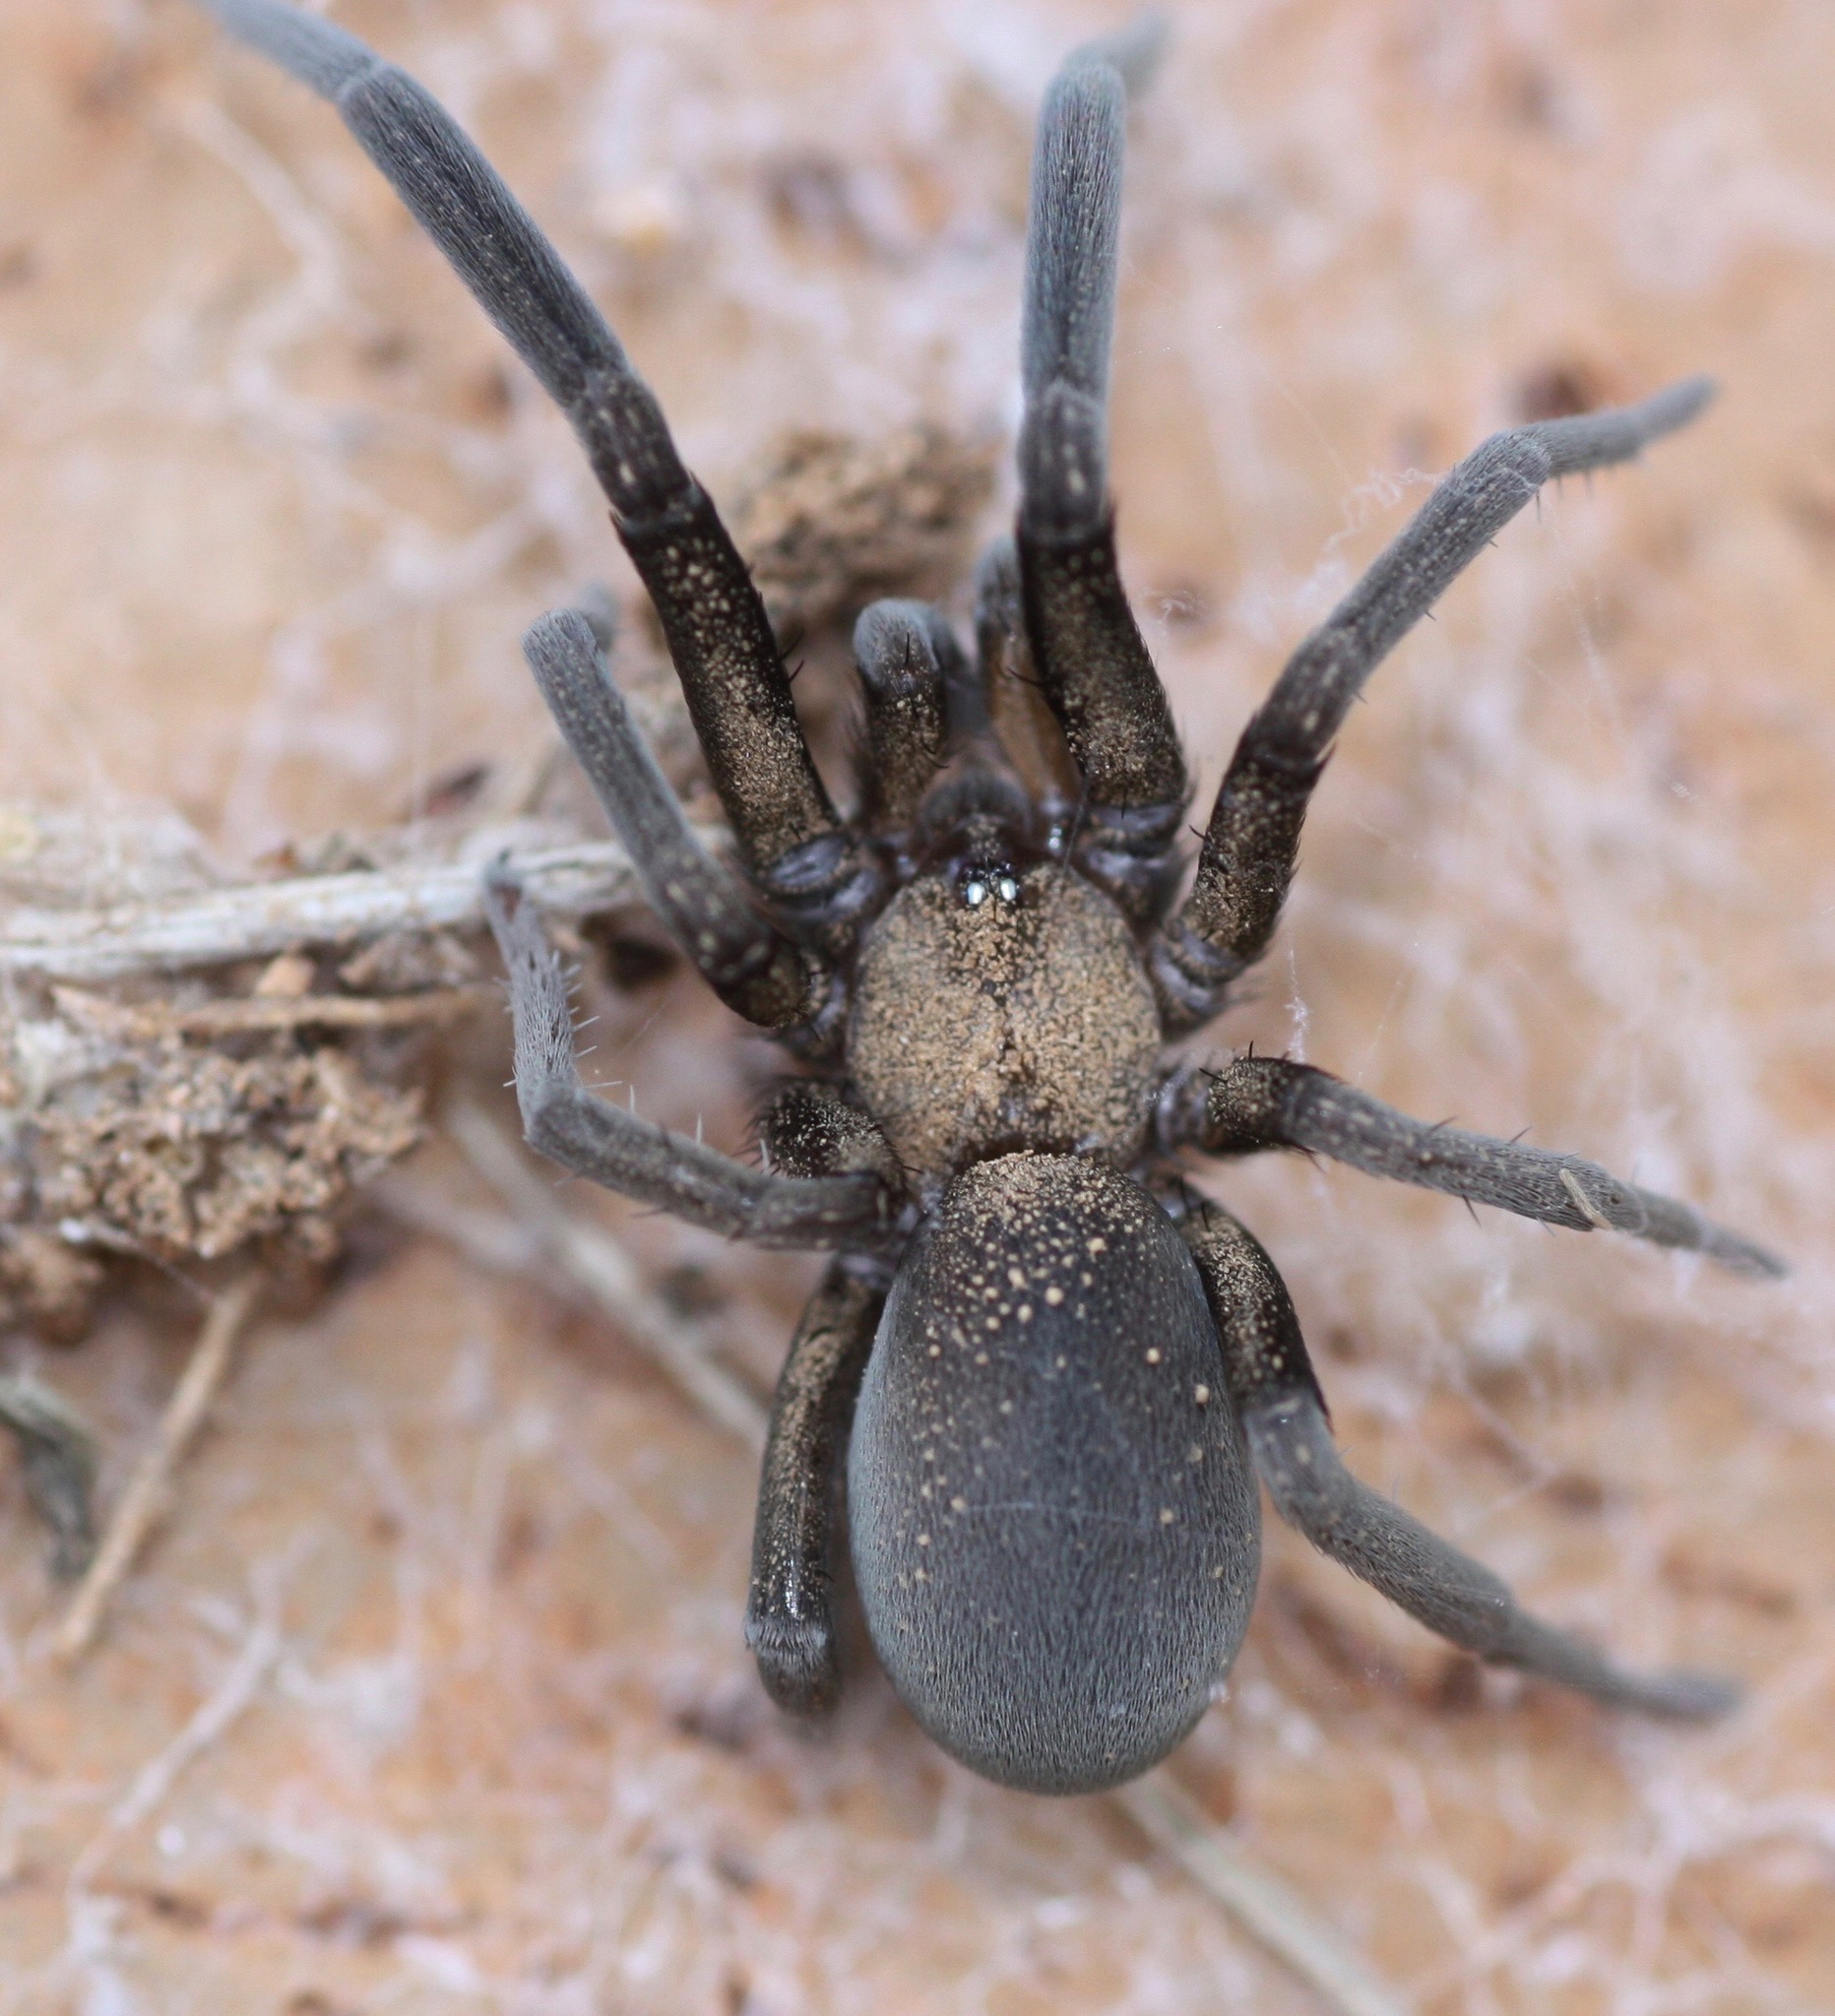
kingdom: Animalia
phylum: Arthropoda
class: Arachnida
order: Araneae
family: Filistatidae
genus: Kukulcania
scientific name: Kukulcania arizonica
